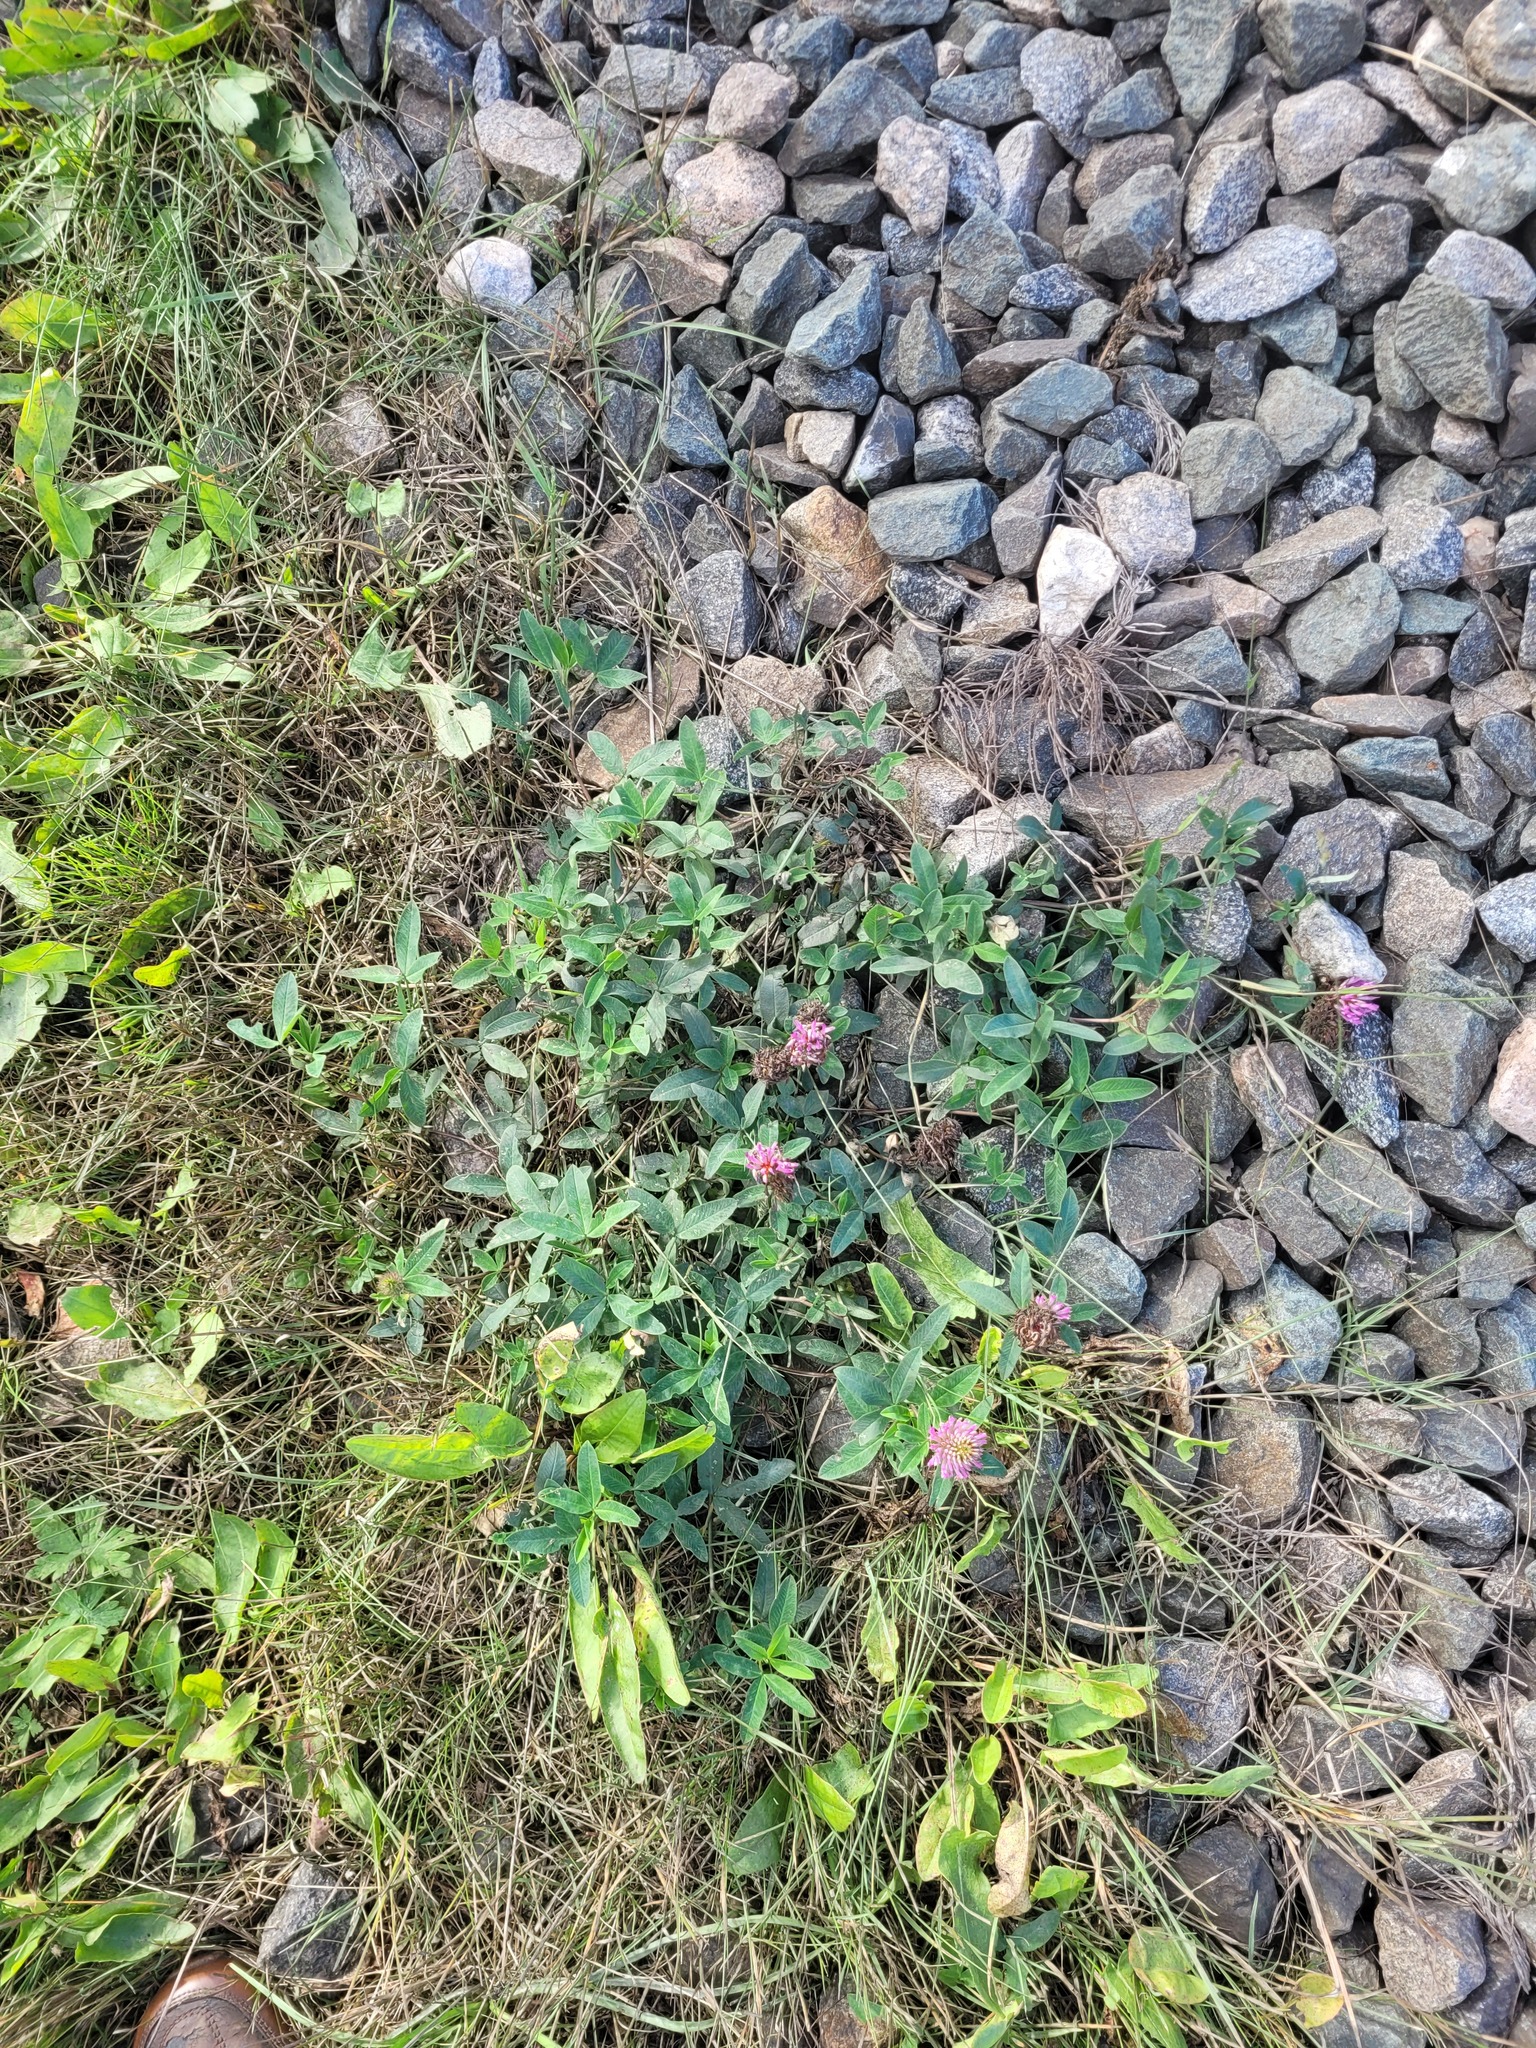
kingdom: Plantae
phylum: Tracheophyta
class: Magnoliopsida
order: Fabales
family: Fabaceae
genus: Trifolium
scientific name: Trifolium medium
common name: Zigzag clover
